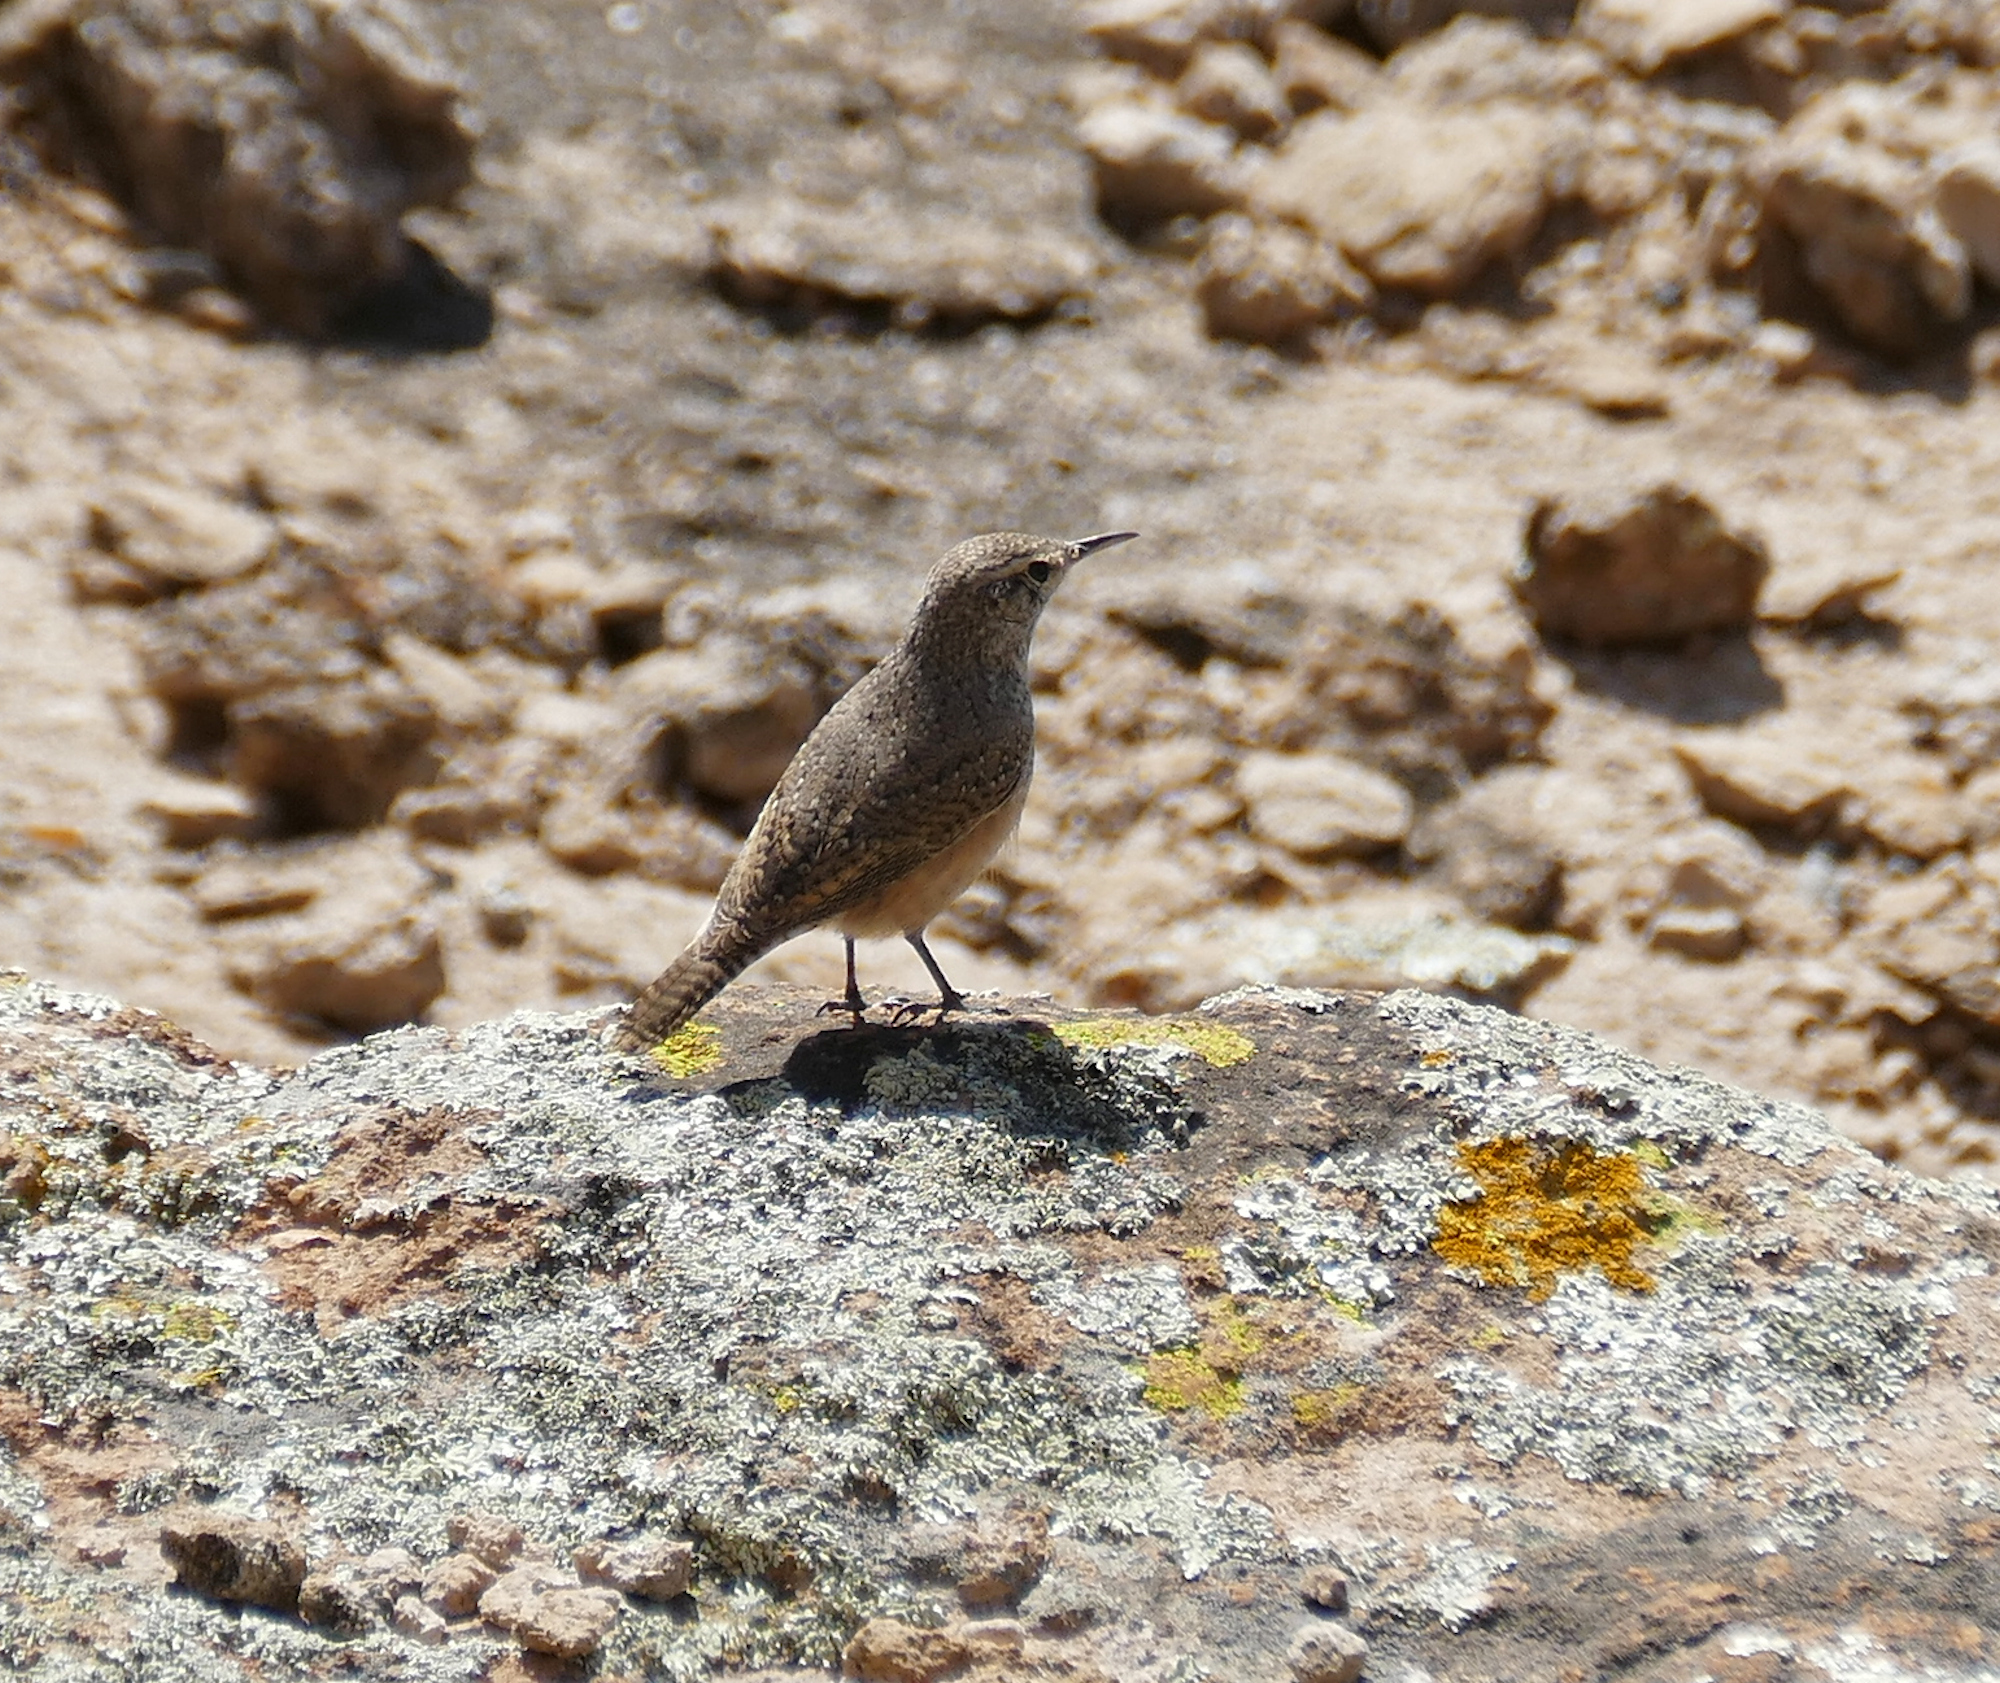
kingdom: Animalia
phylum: Chordata
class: Aves
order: Passeriformes
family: Troglodytidae
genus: Salpinctes
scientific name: Salpinctes obsoletus
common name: Rock wren
